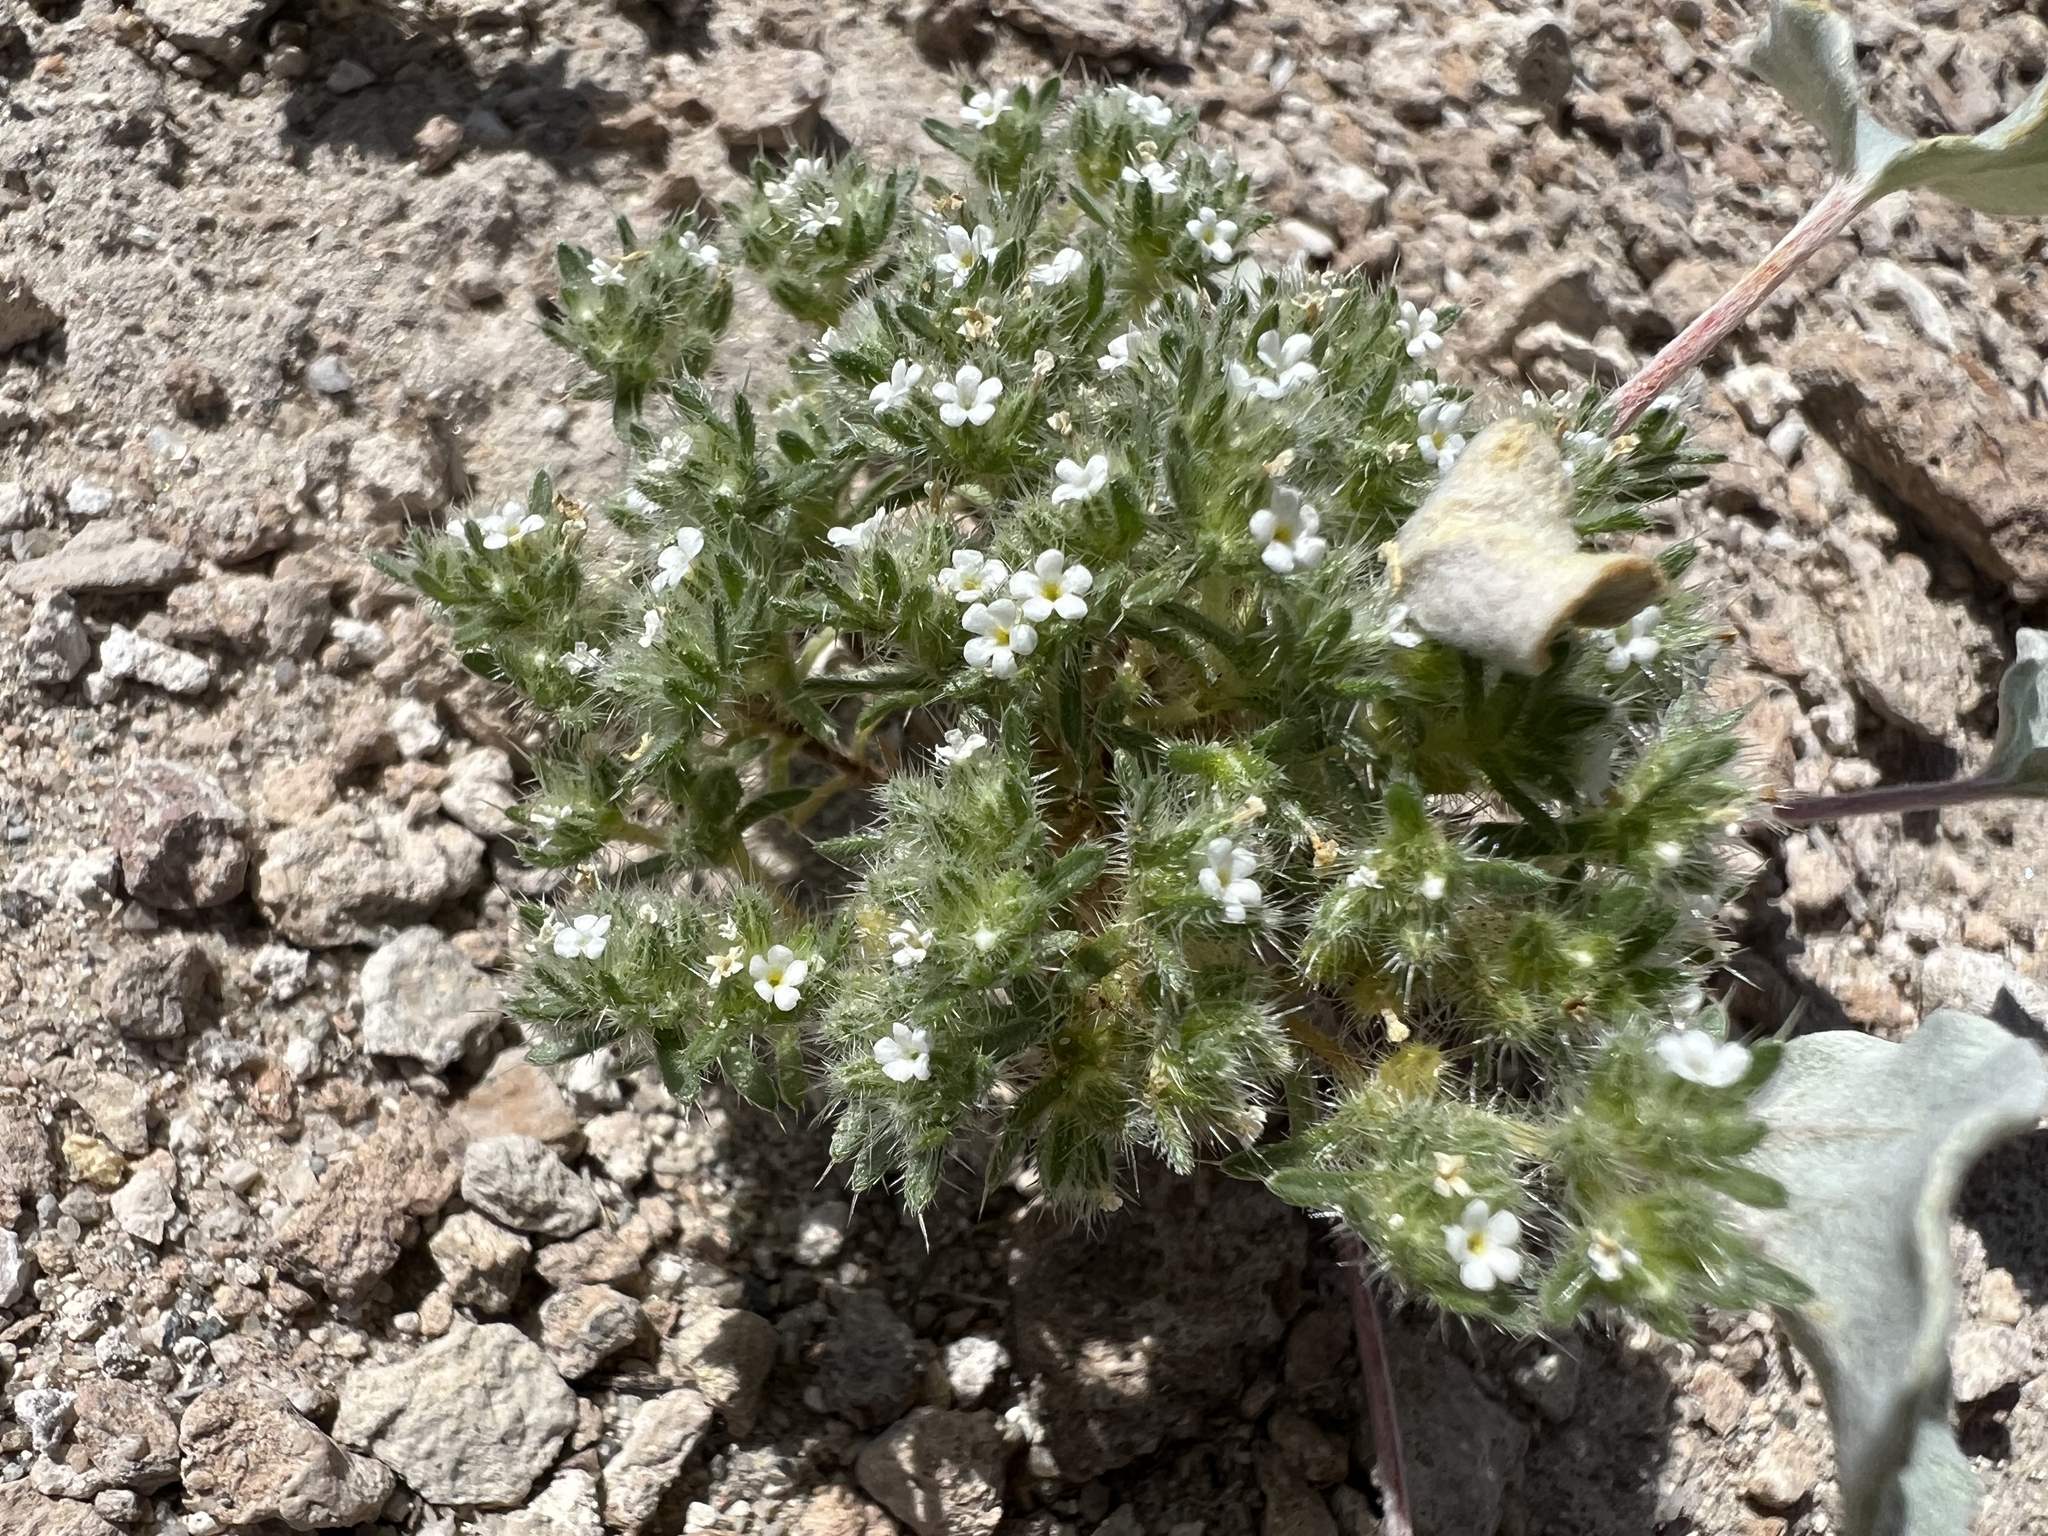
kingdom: Plantae
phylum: Tracheophyta
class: Magnoliopsida
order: Boraginales
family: Boraginaceae
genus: Greeneocharis
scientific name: Greeneocharis circumscissa
